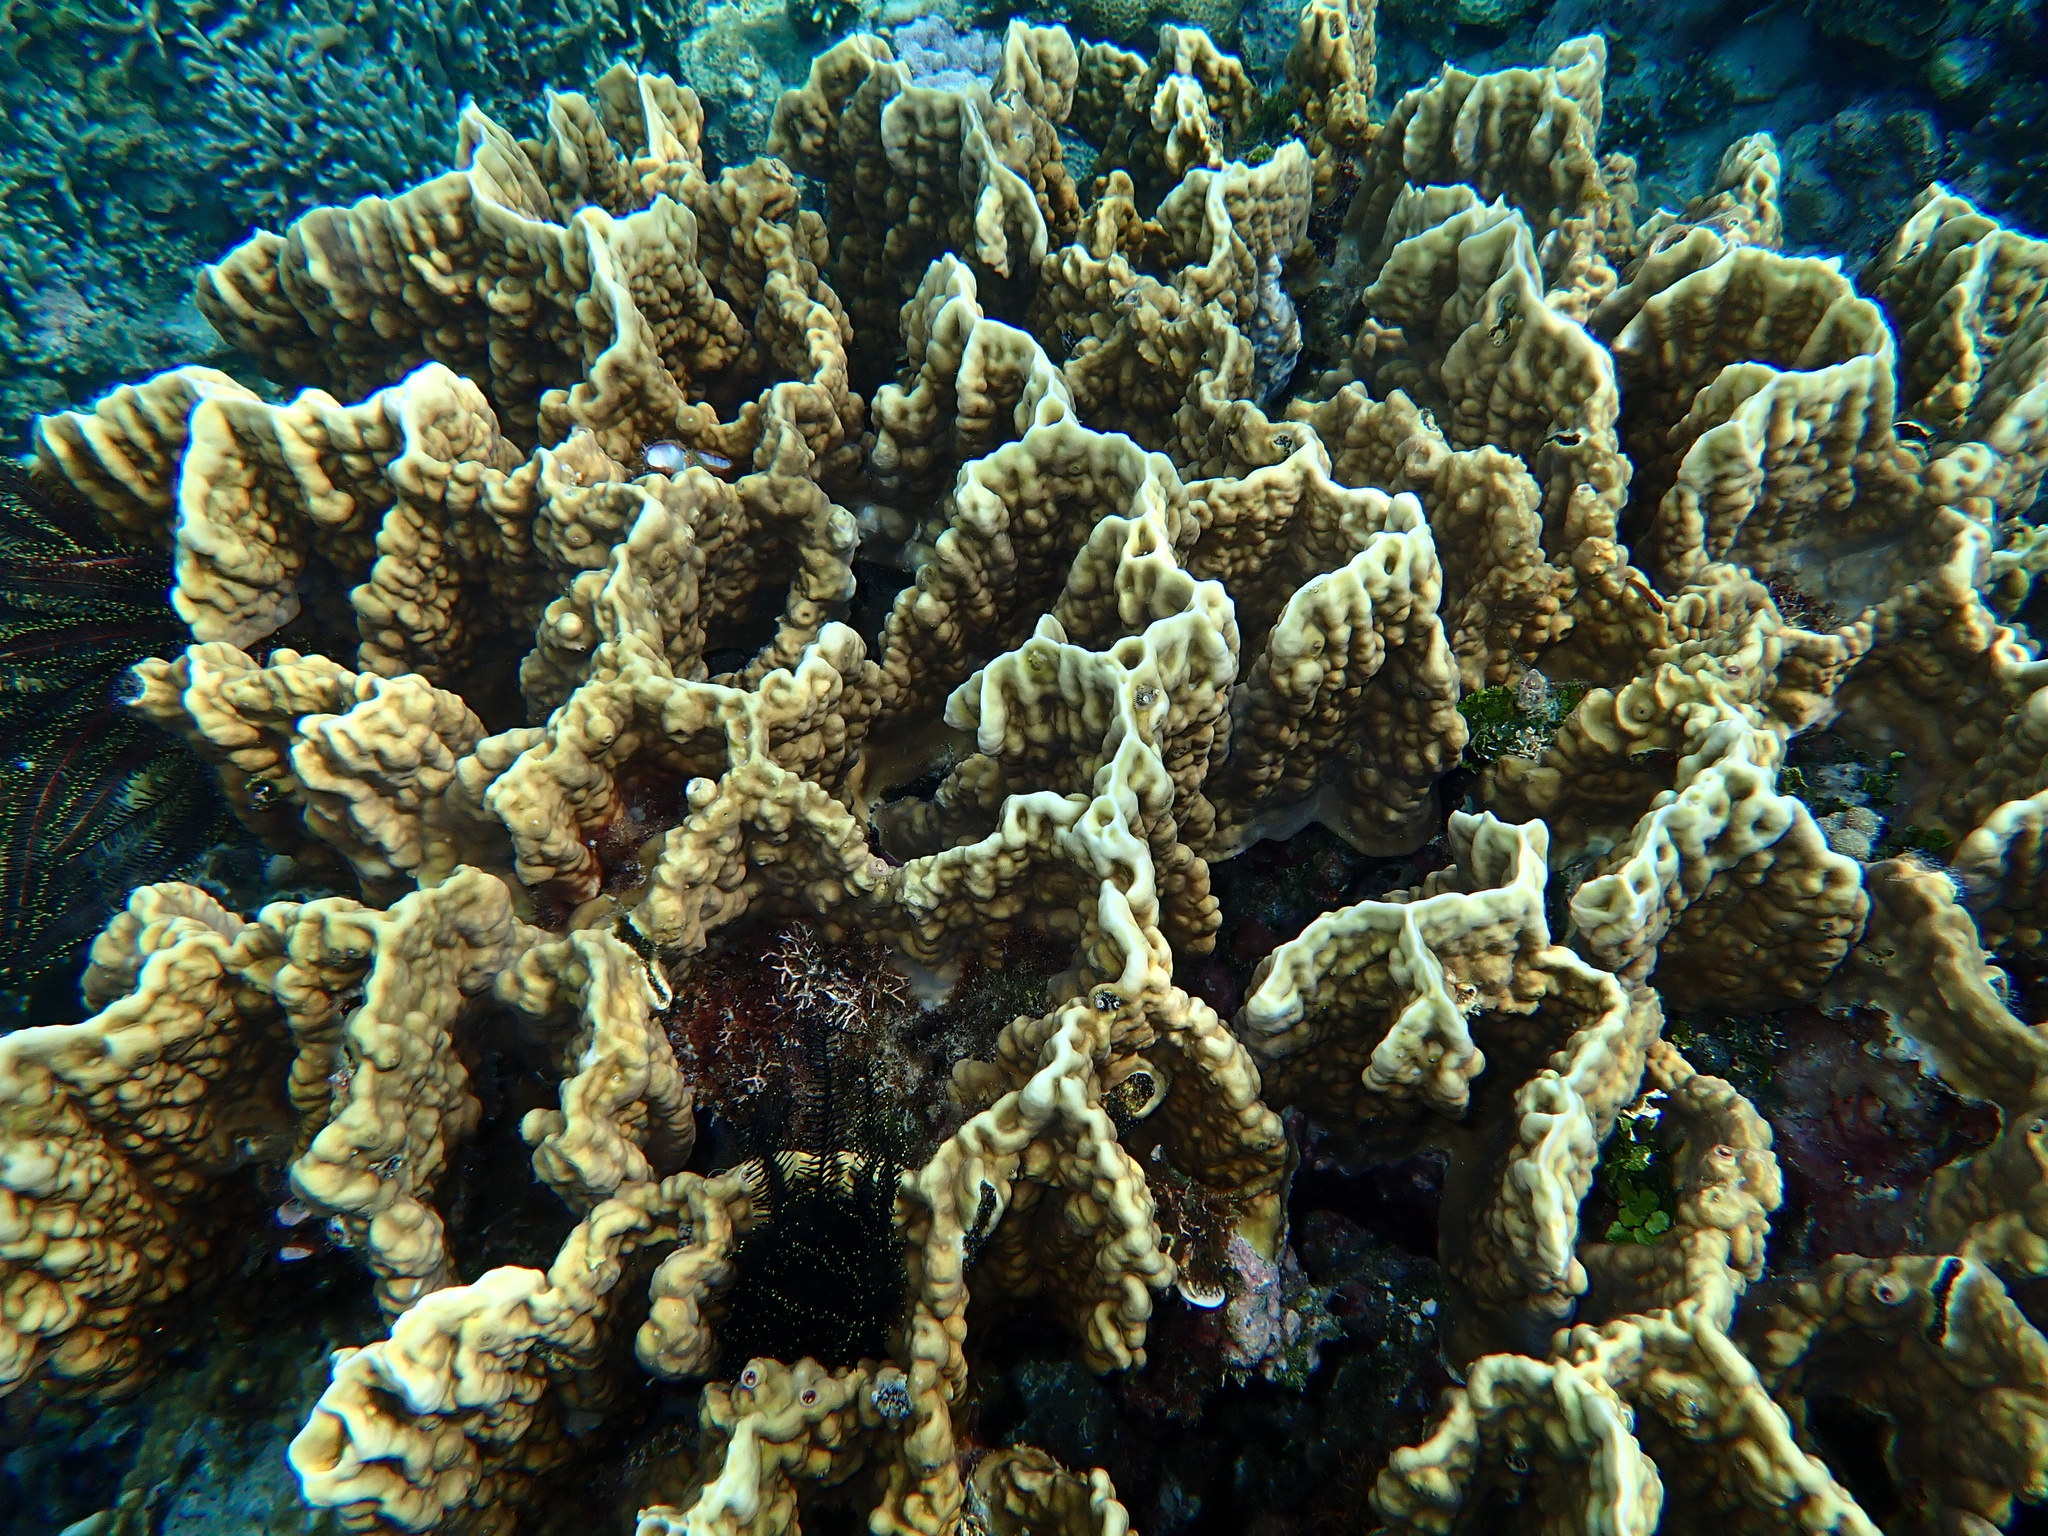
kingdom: Animalia
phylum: Cnidaria
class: Hydrozoa
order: Anthoathecata
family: Milleporidae
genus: Millepora
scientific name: Millepora platyphylla
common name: Sheet fire coral
